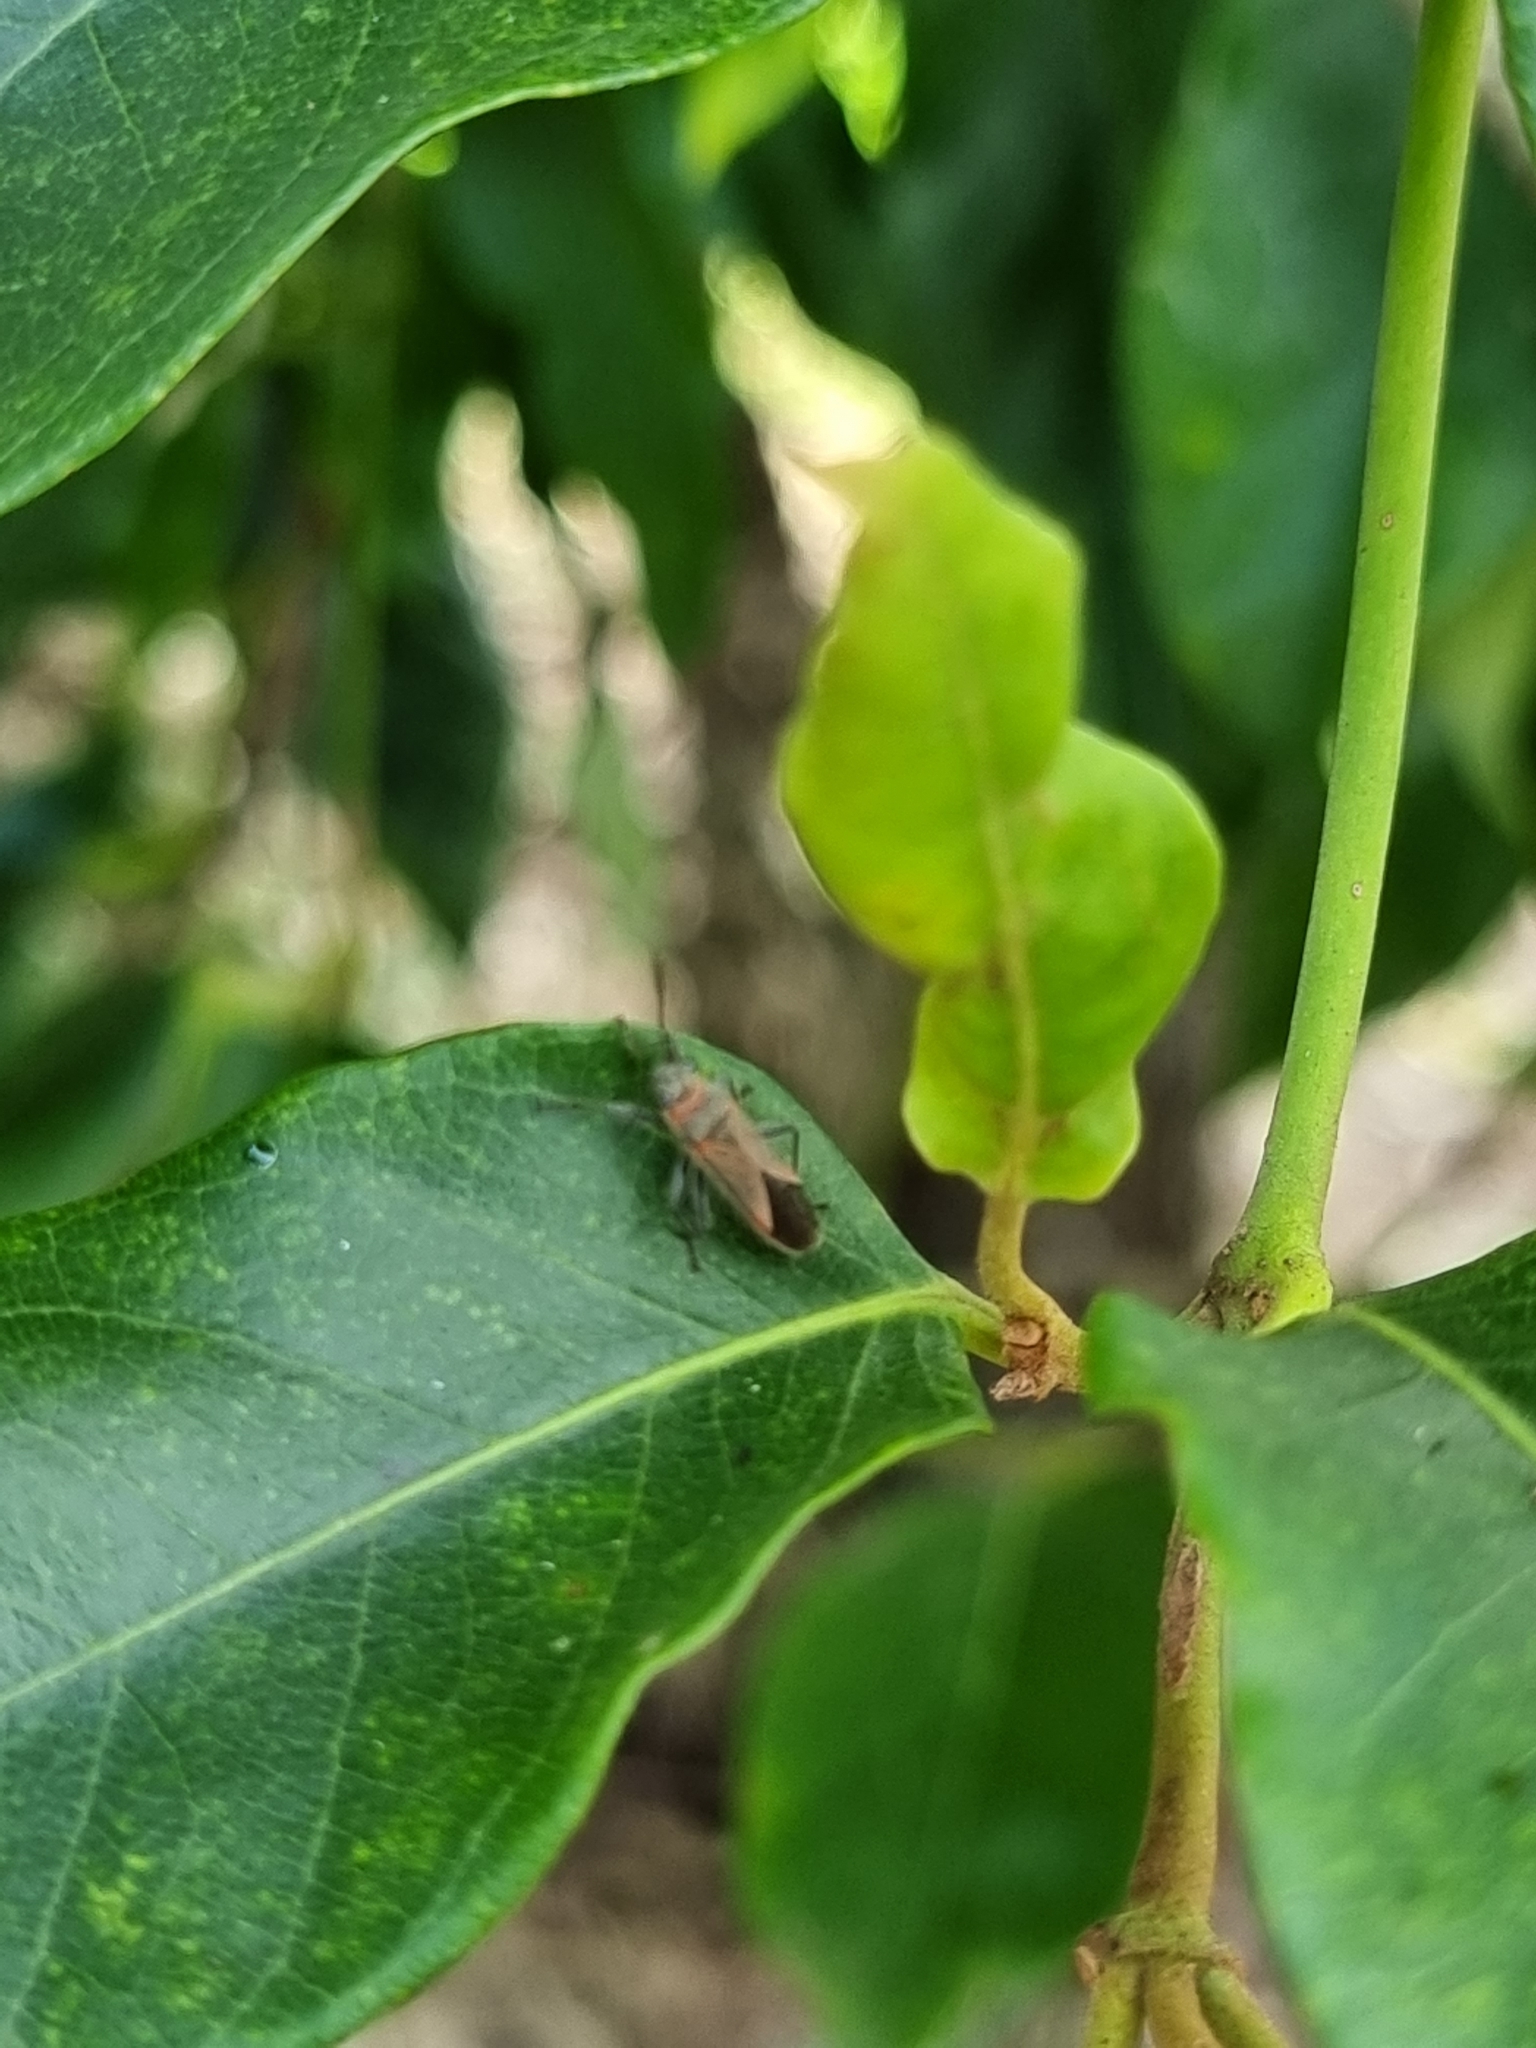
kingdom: Animalia
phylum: Arthropoda
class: Insecta
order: Hemiptera
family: Lygaeidae
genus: Arocatus
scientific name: Arocatus rusticus
